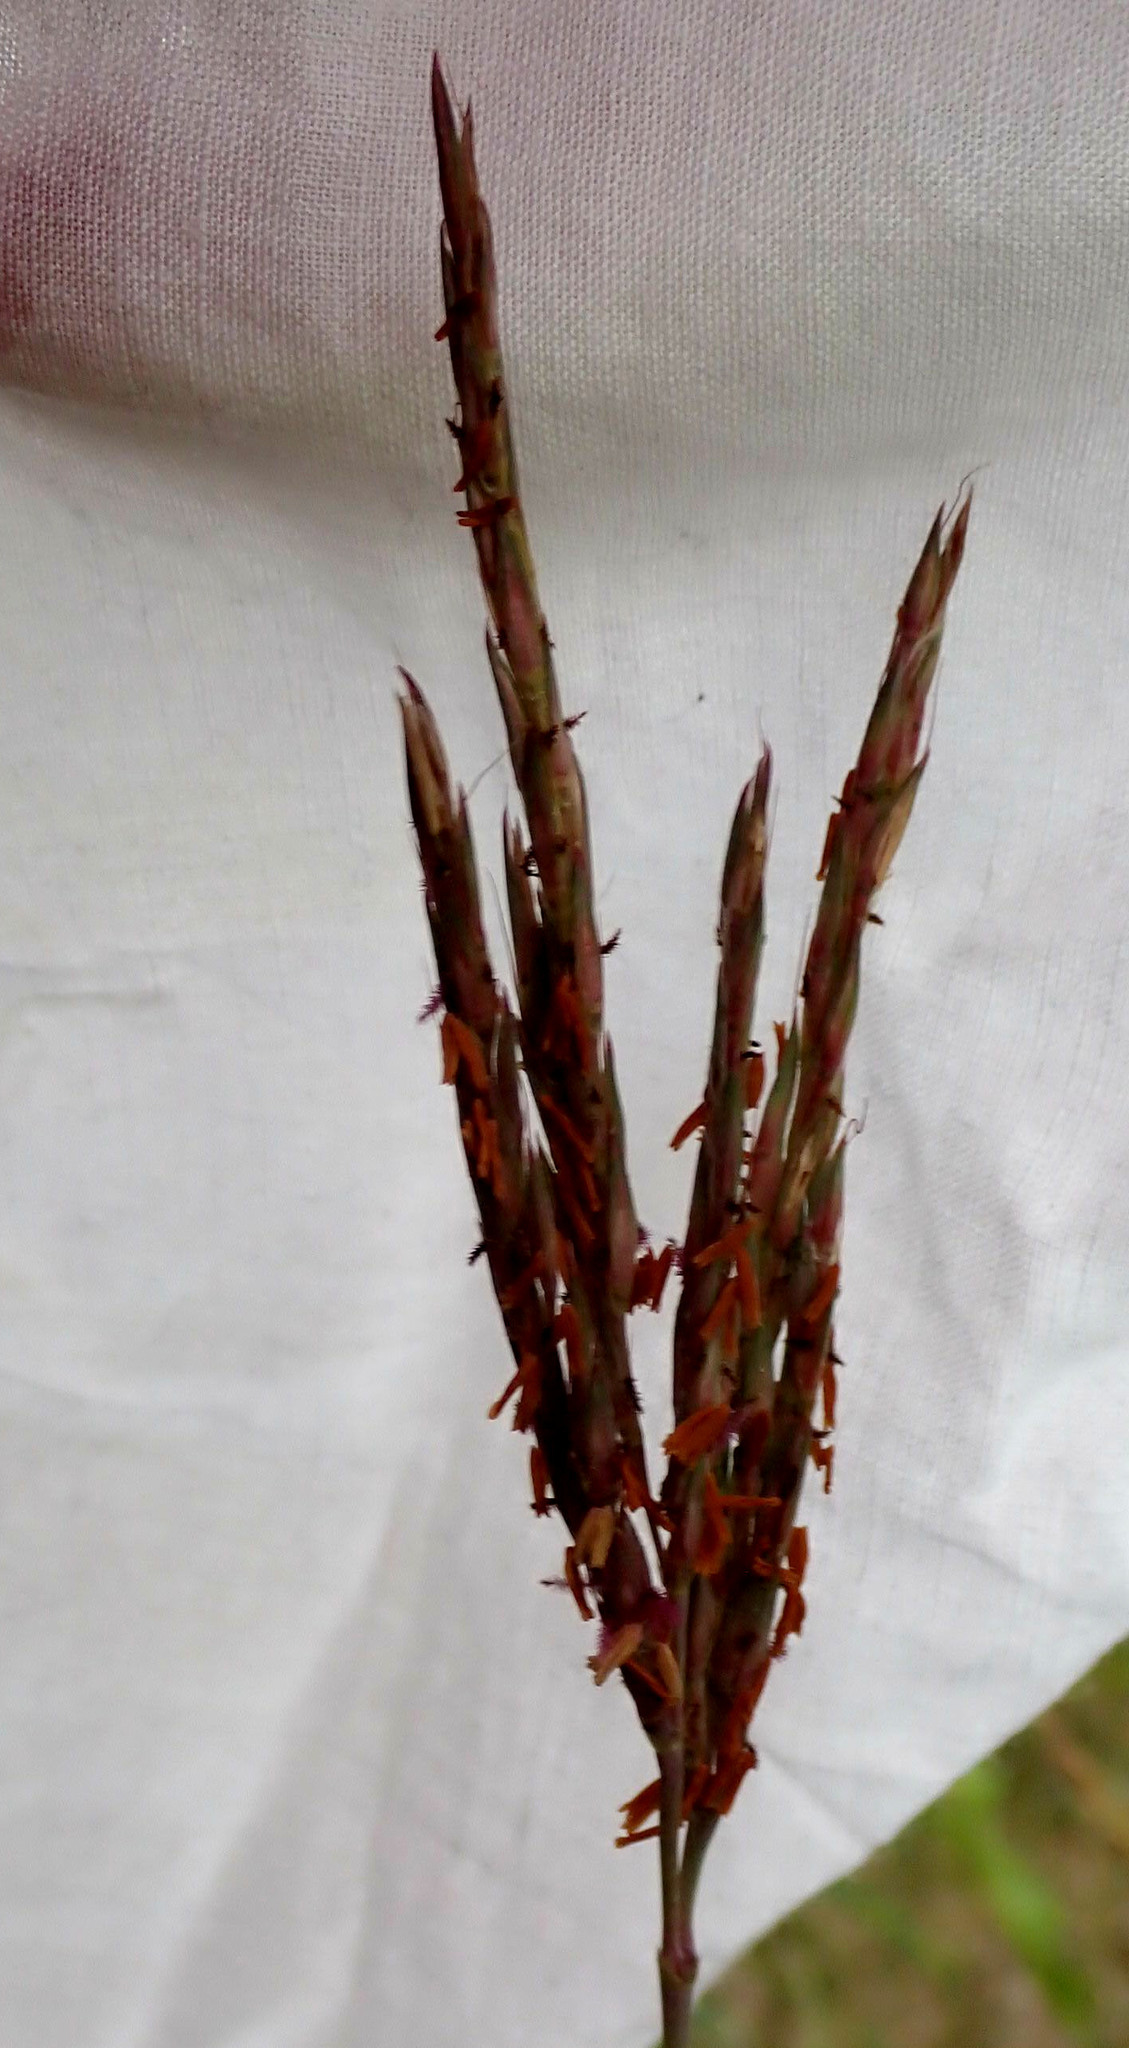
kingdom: Plantae
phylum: Tracheophyta
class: Liliopsida
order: Poales
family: Poaceae
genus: Andropogon
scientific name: Andropogon gerardi
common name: Big bluestem
